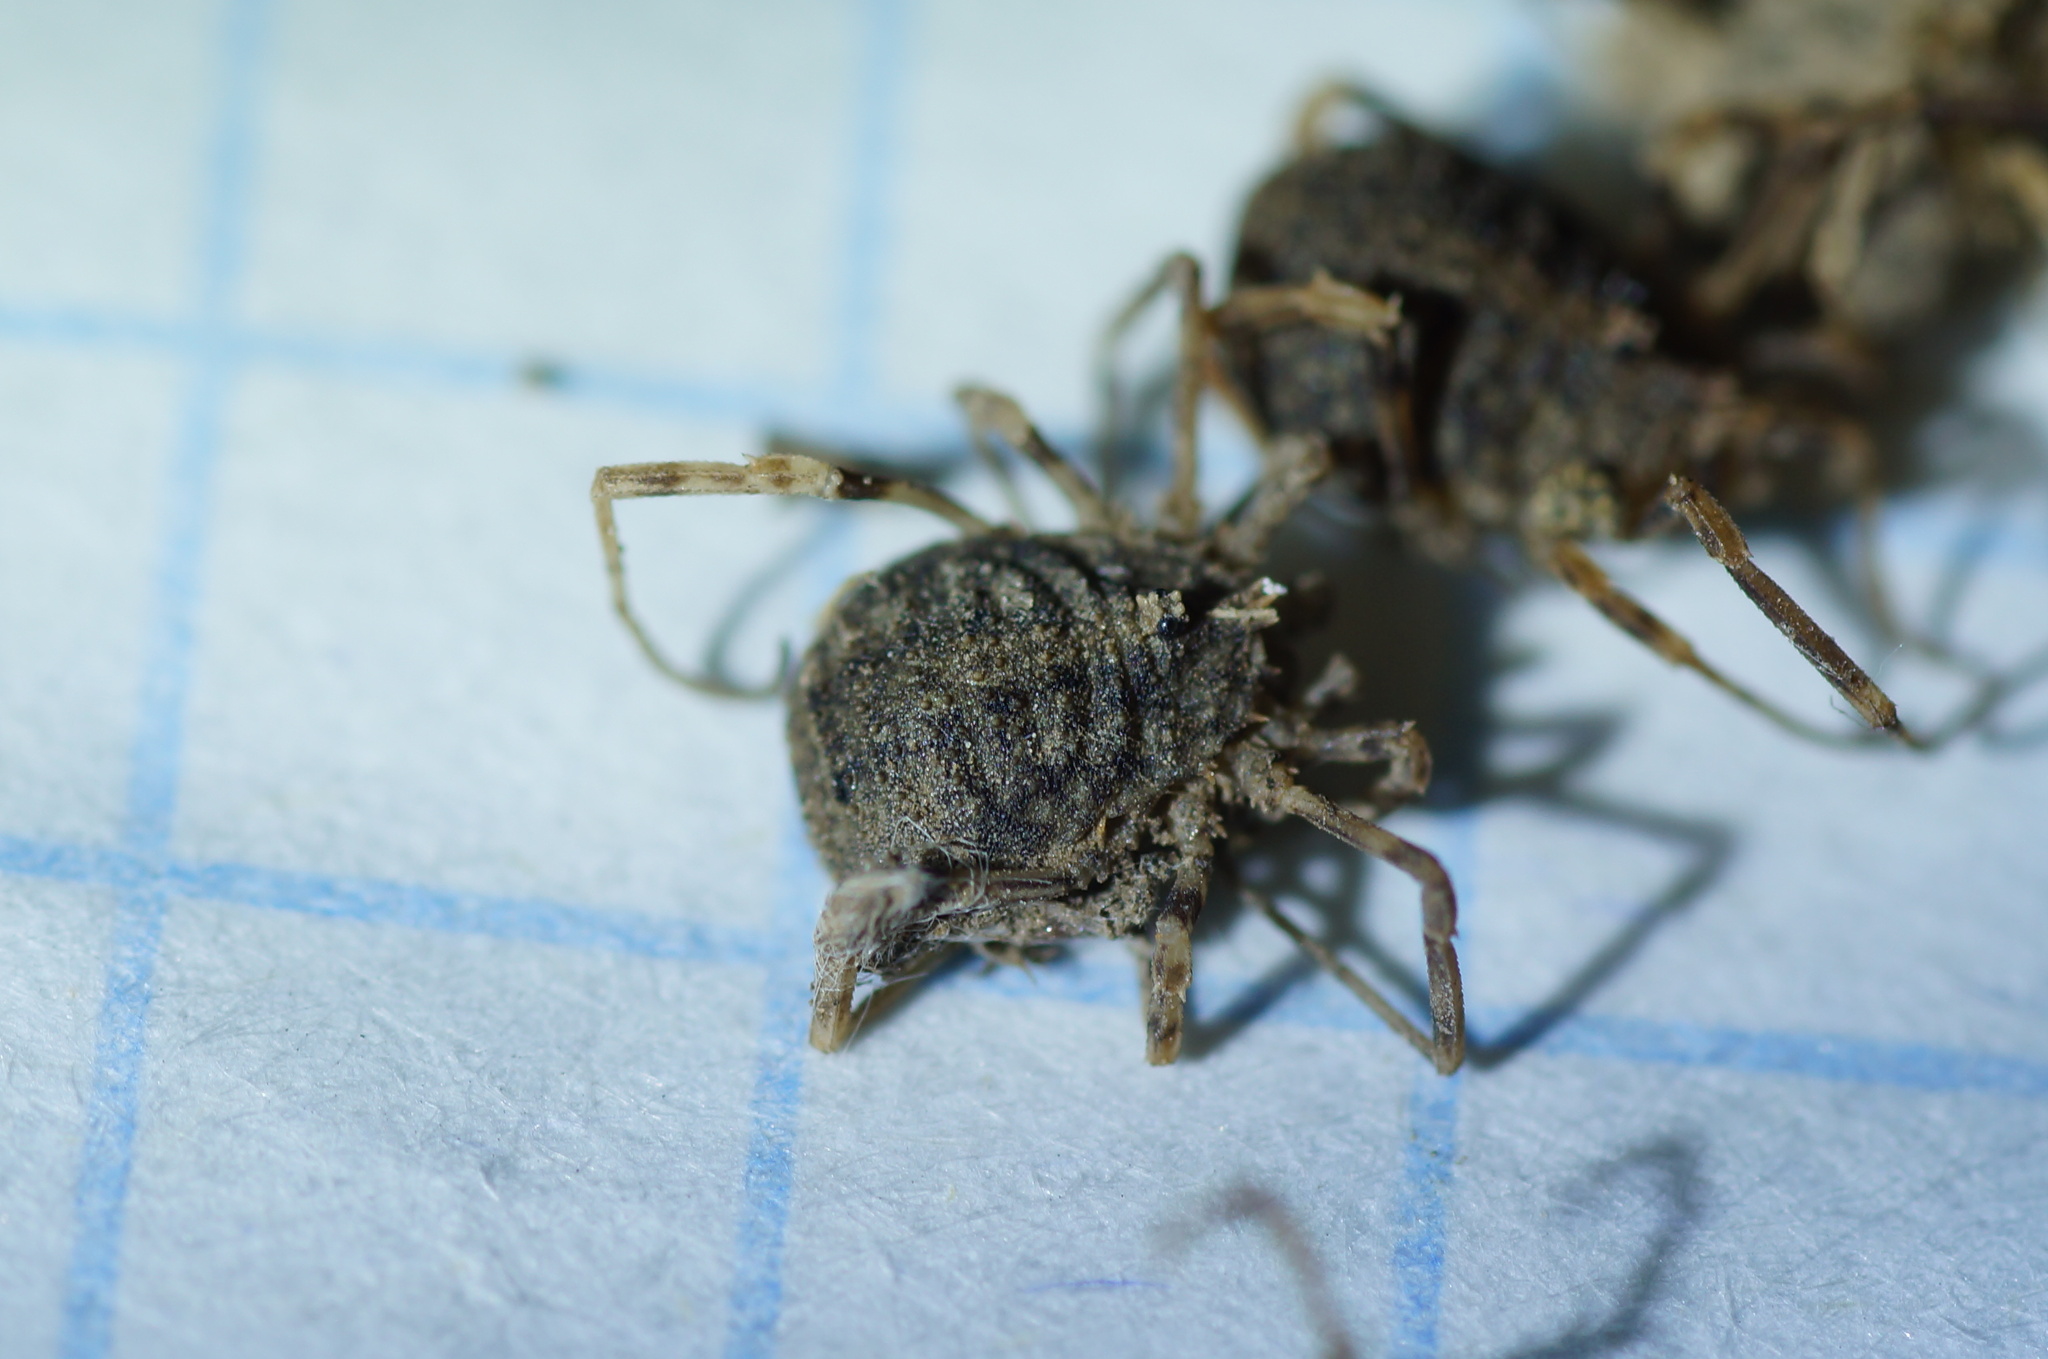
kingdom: Animalia
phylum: Arthropoda
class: Arachnida
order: Opiliones
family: Phalangiidae
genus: Odiellus
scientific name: Odiellus lendlii
